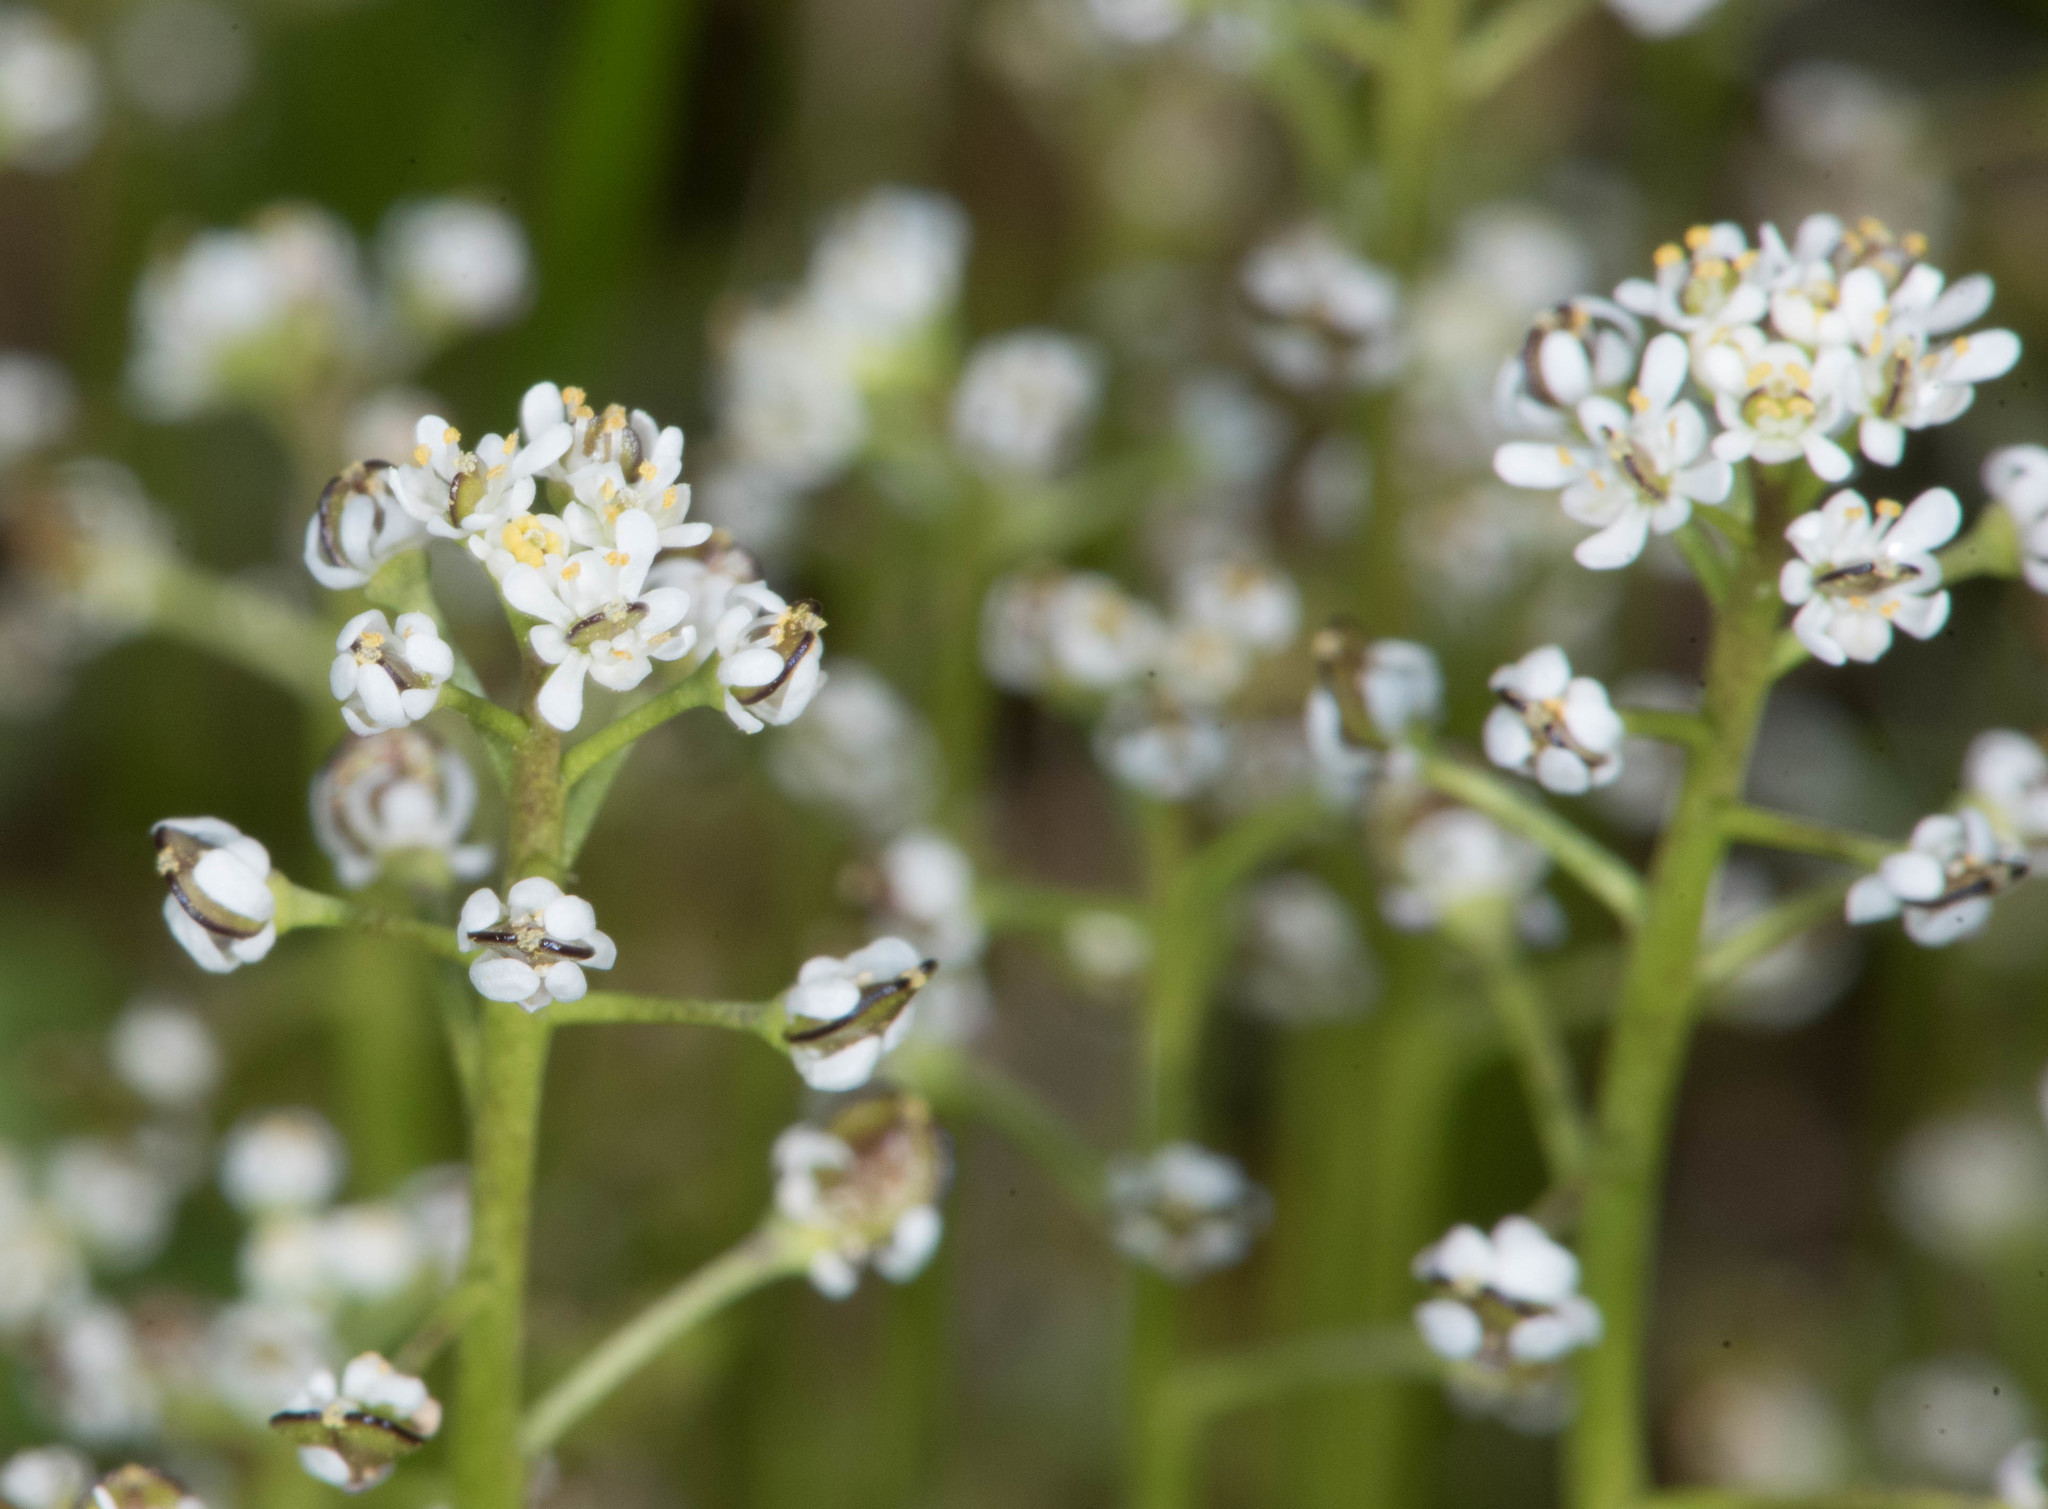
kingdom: Plantae
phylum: Tracheophyta
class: Magnoliopsida
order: Brassicales
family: Brassicaceae
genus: Lepidium
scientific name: Lepidium nitidum
